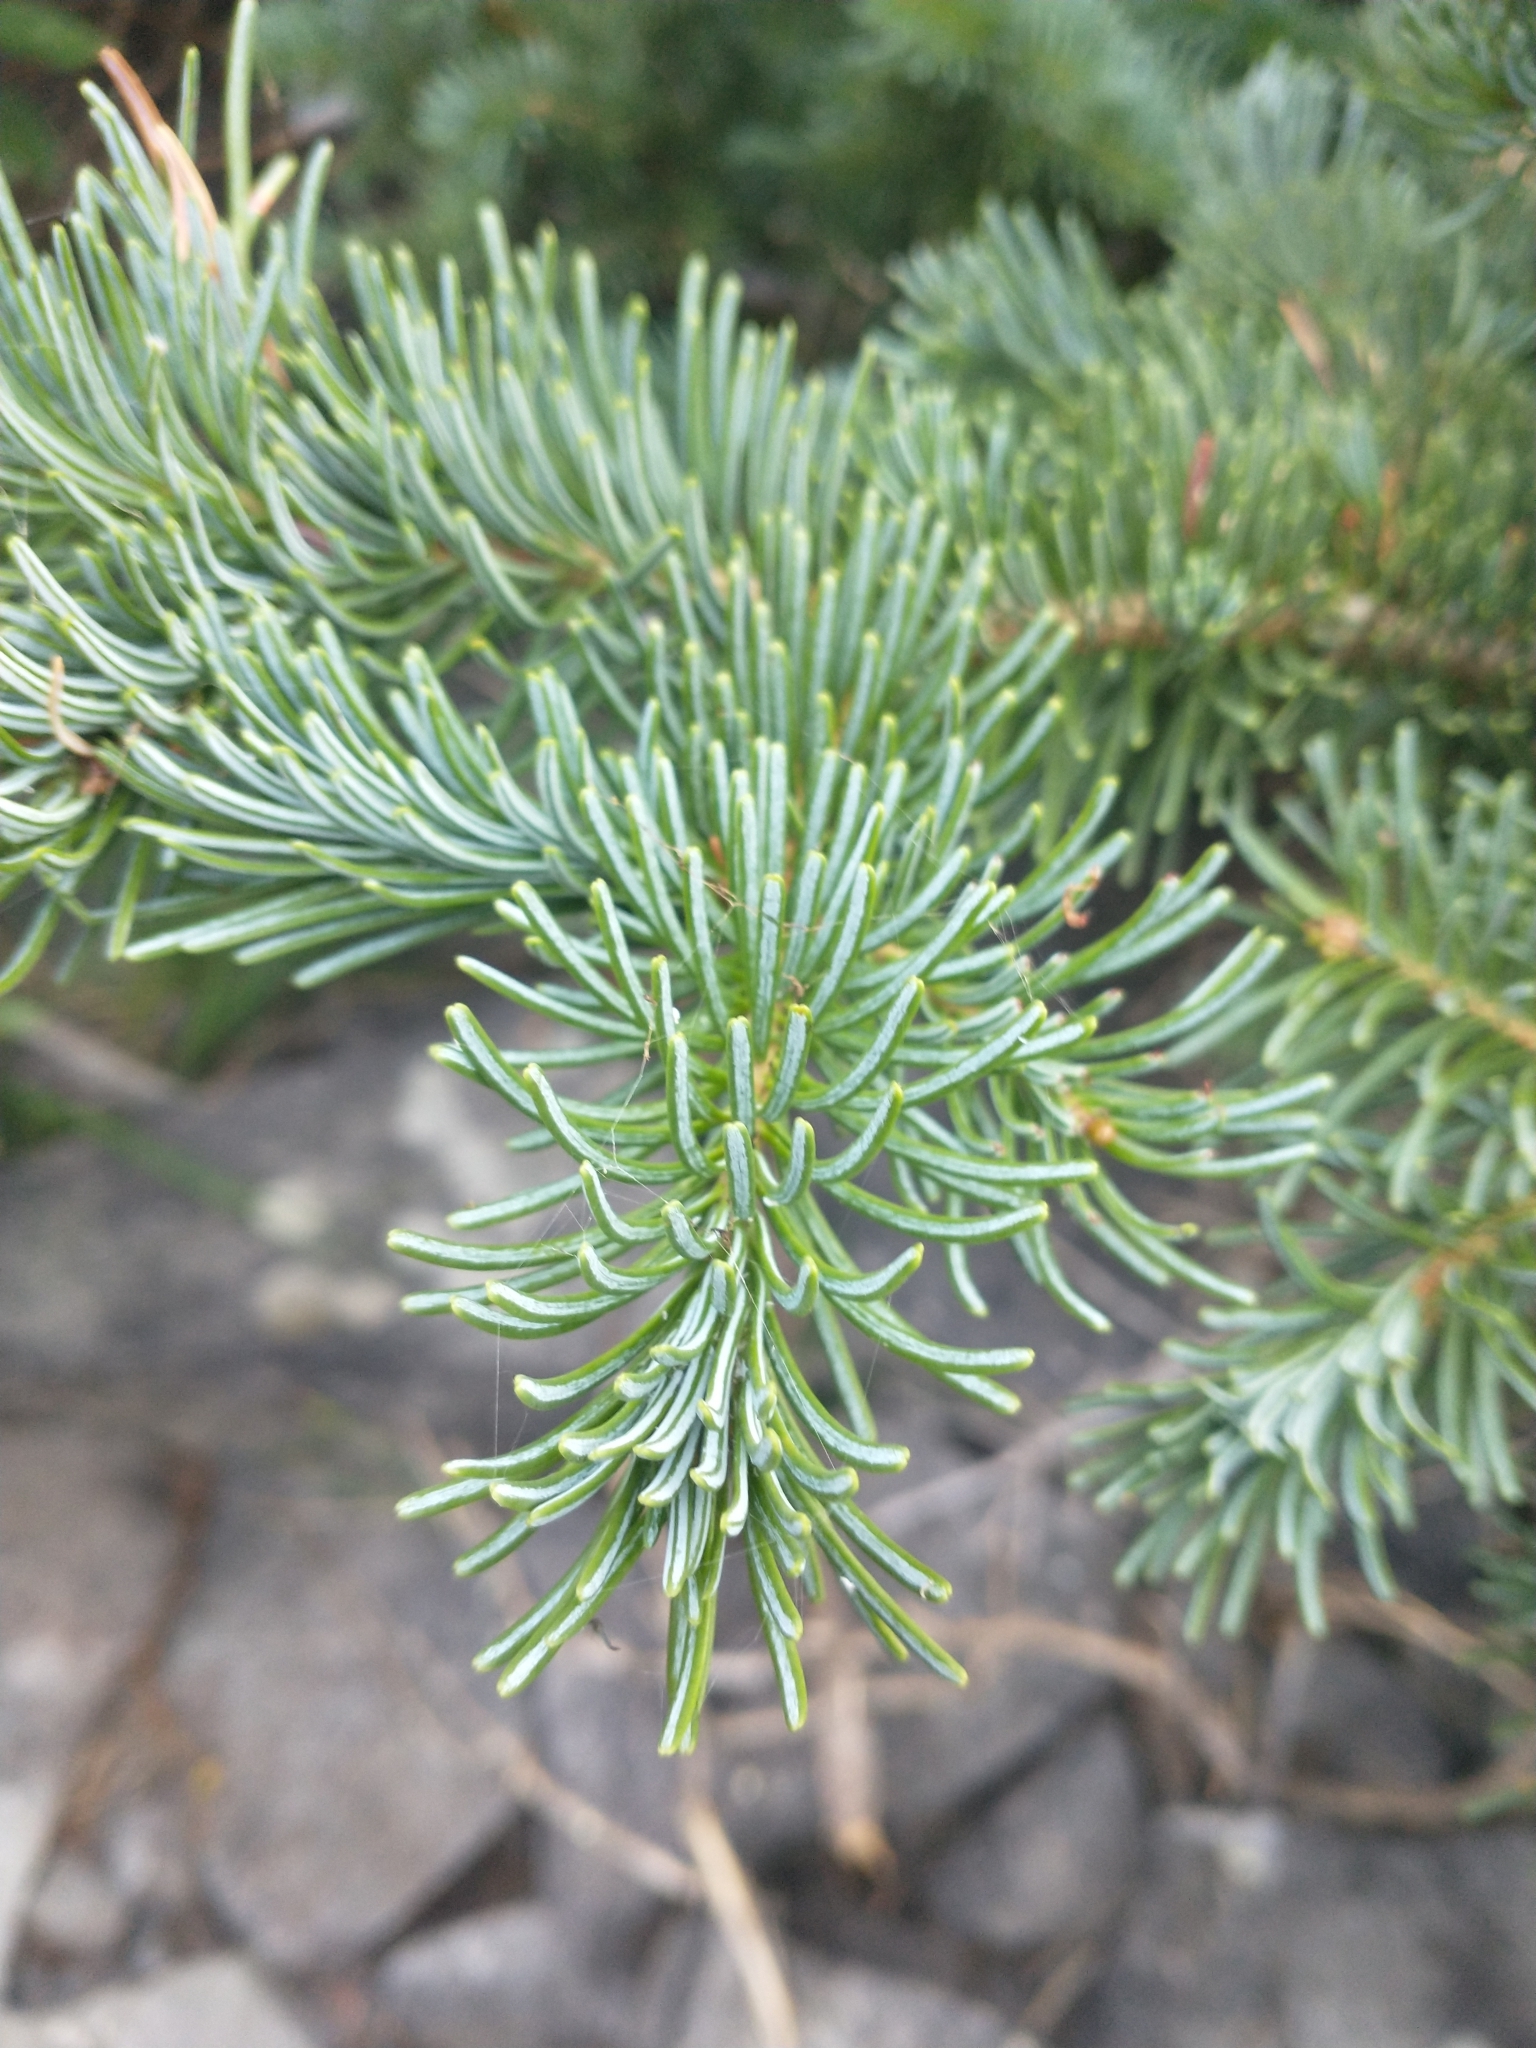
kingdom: Plantae
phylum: Tracheophyta
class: Pinopsida
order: Pinales
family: Pinaceae
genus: Abies
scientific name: Abies lasiocarpa
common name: Subalpine fir
